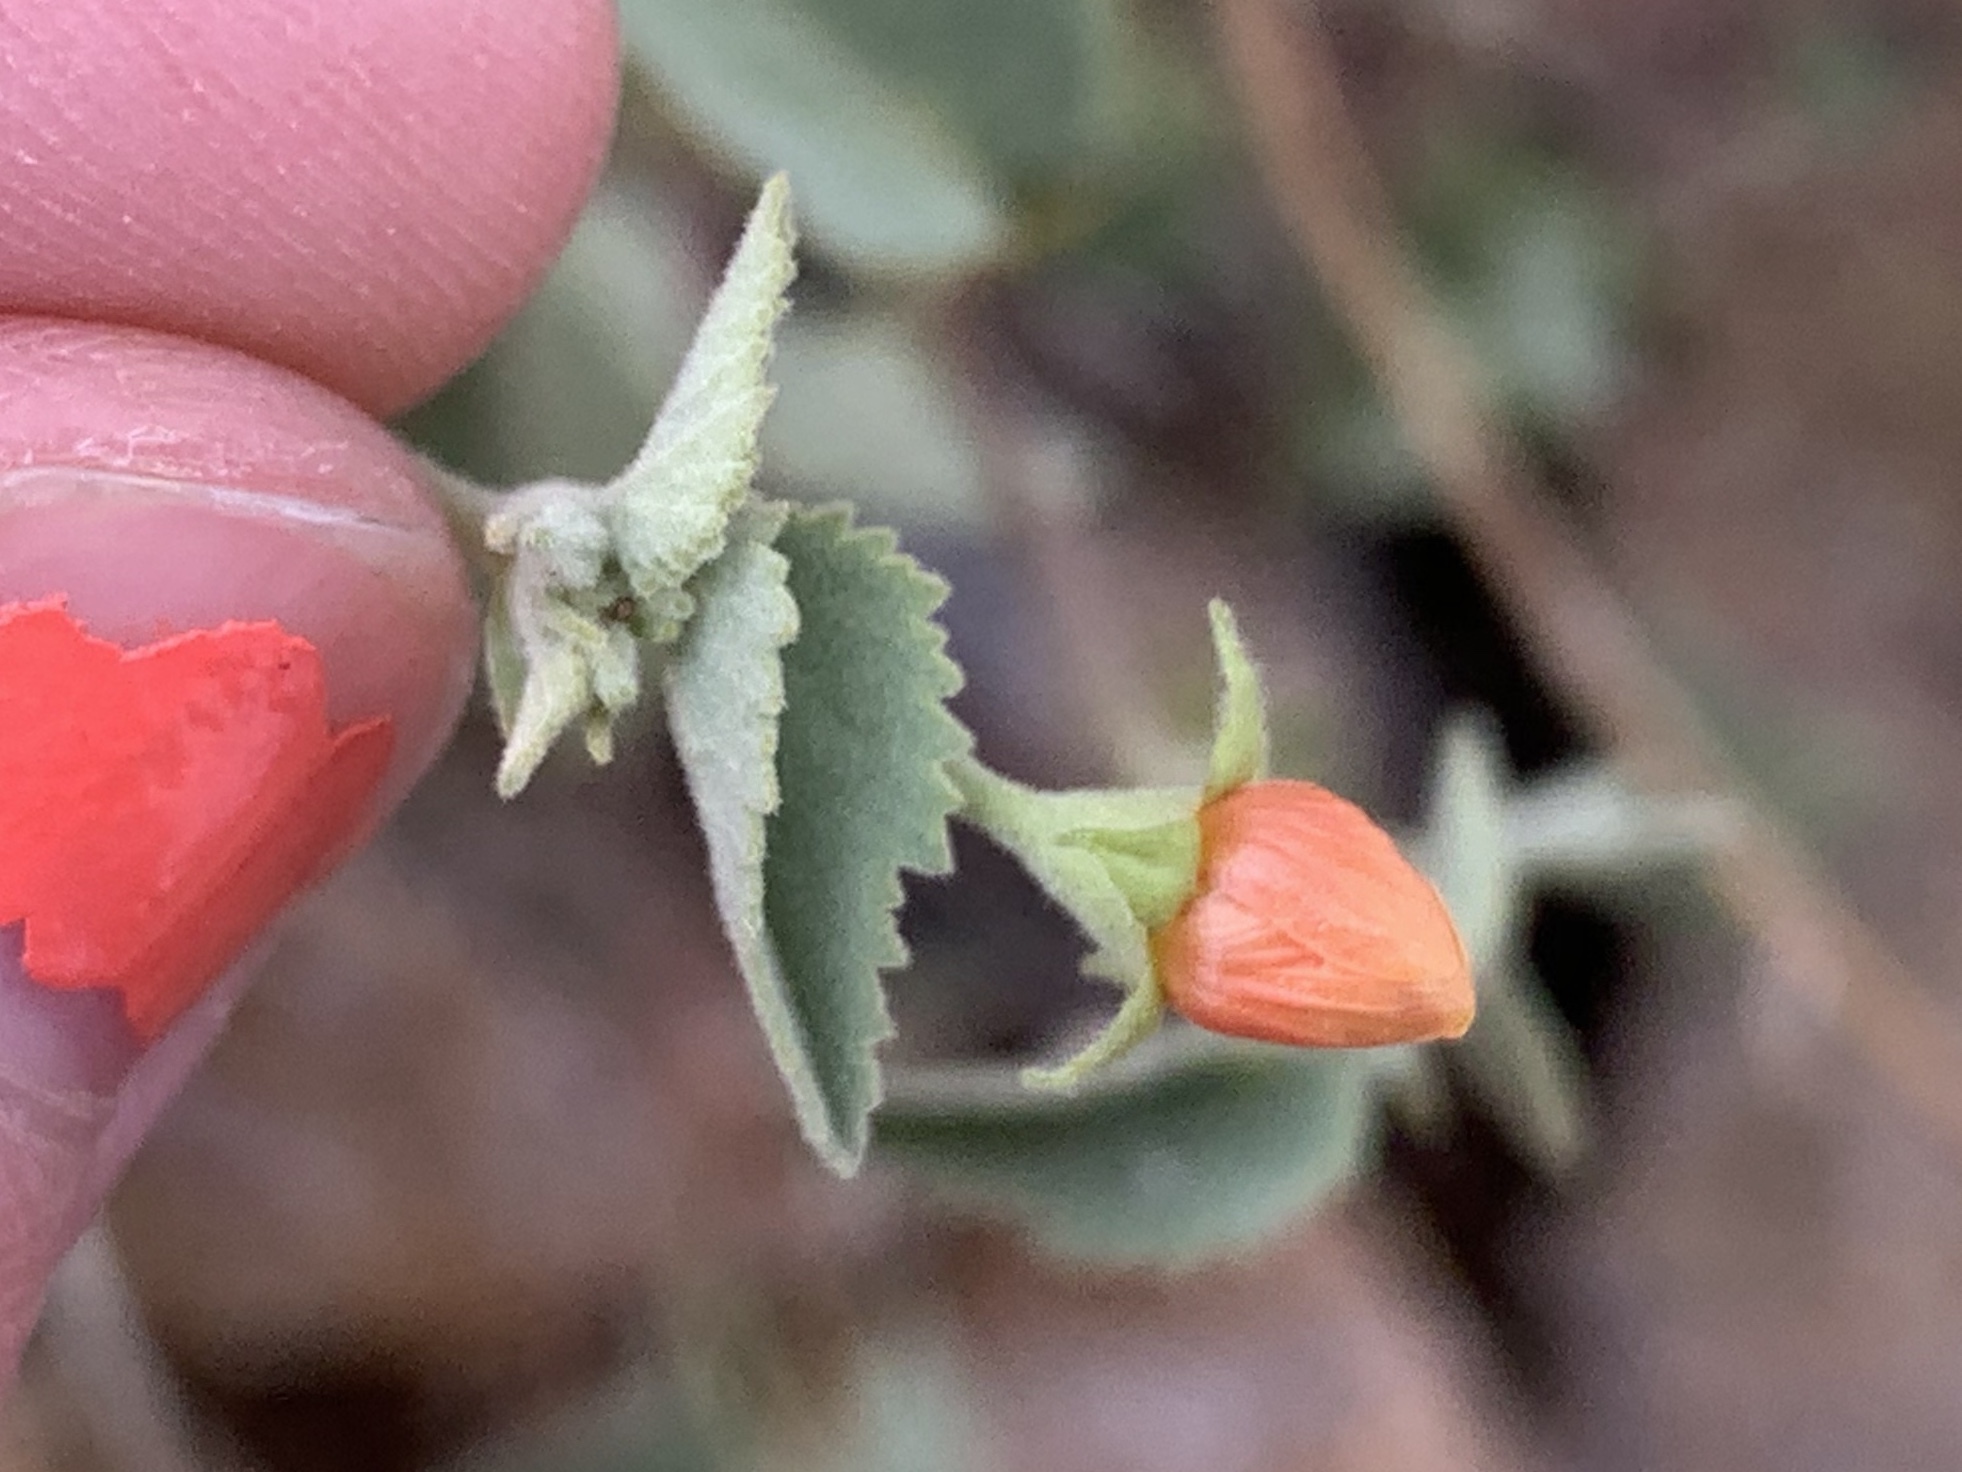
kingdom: Plantae
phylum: Tracheophyta
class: Magnoliopsida
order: Malvales
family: Malvaceae
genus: Abutilon
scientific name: Abutilon parvulum
